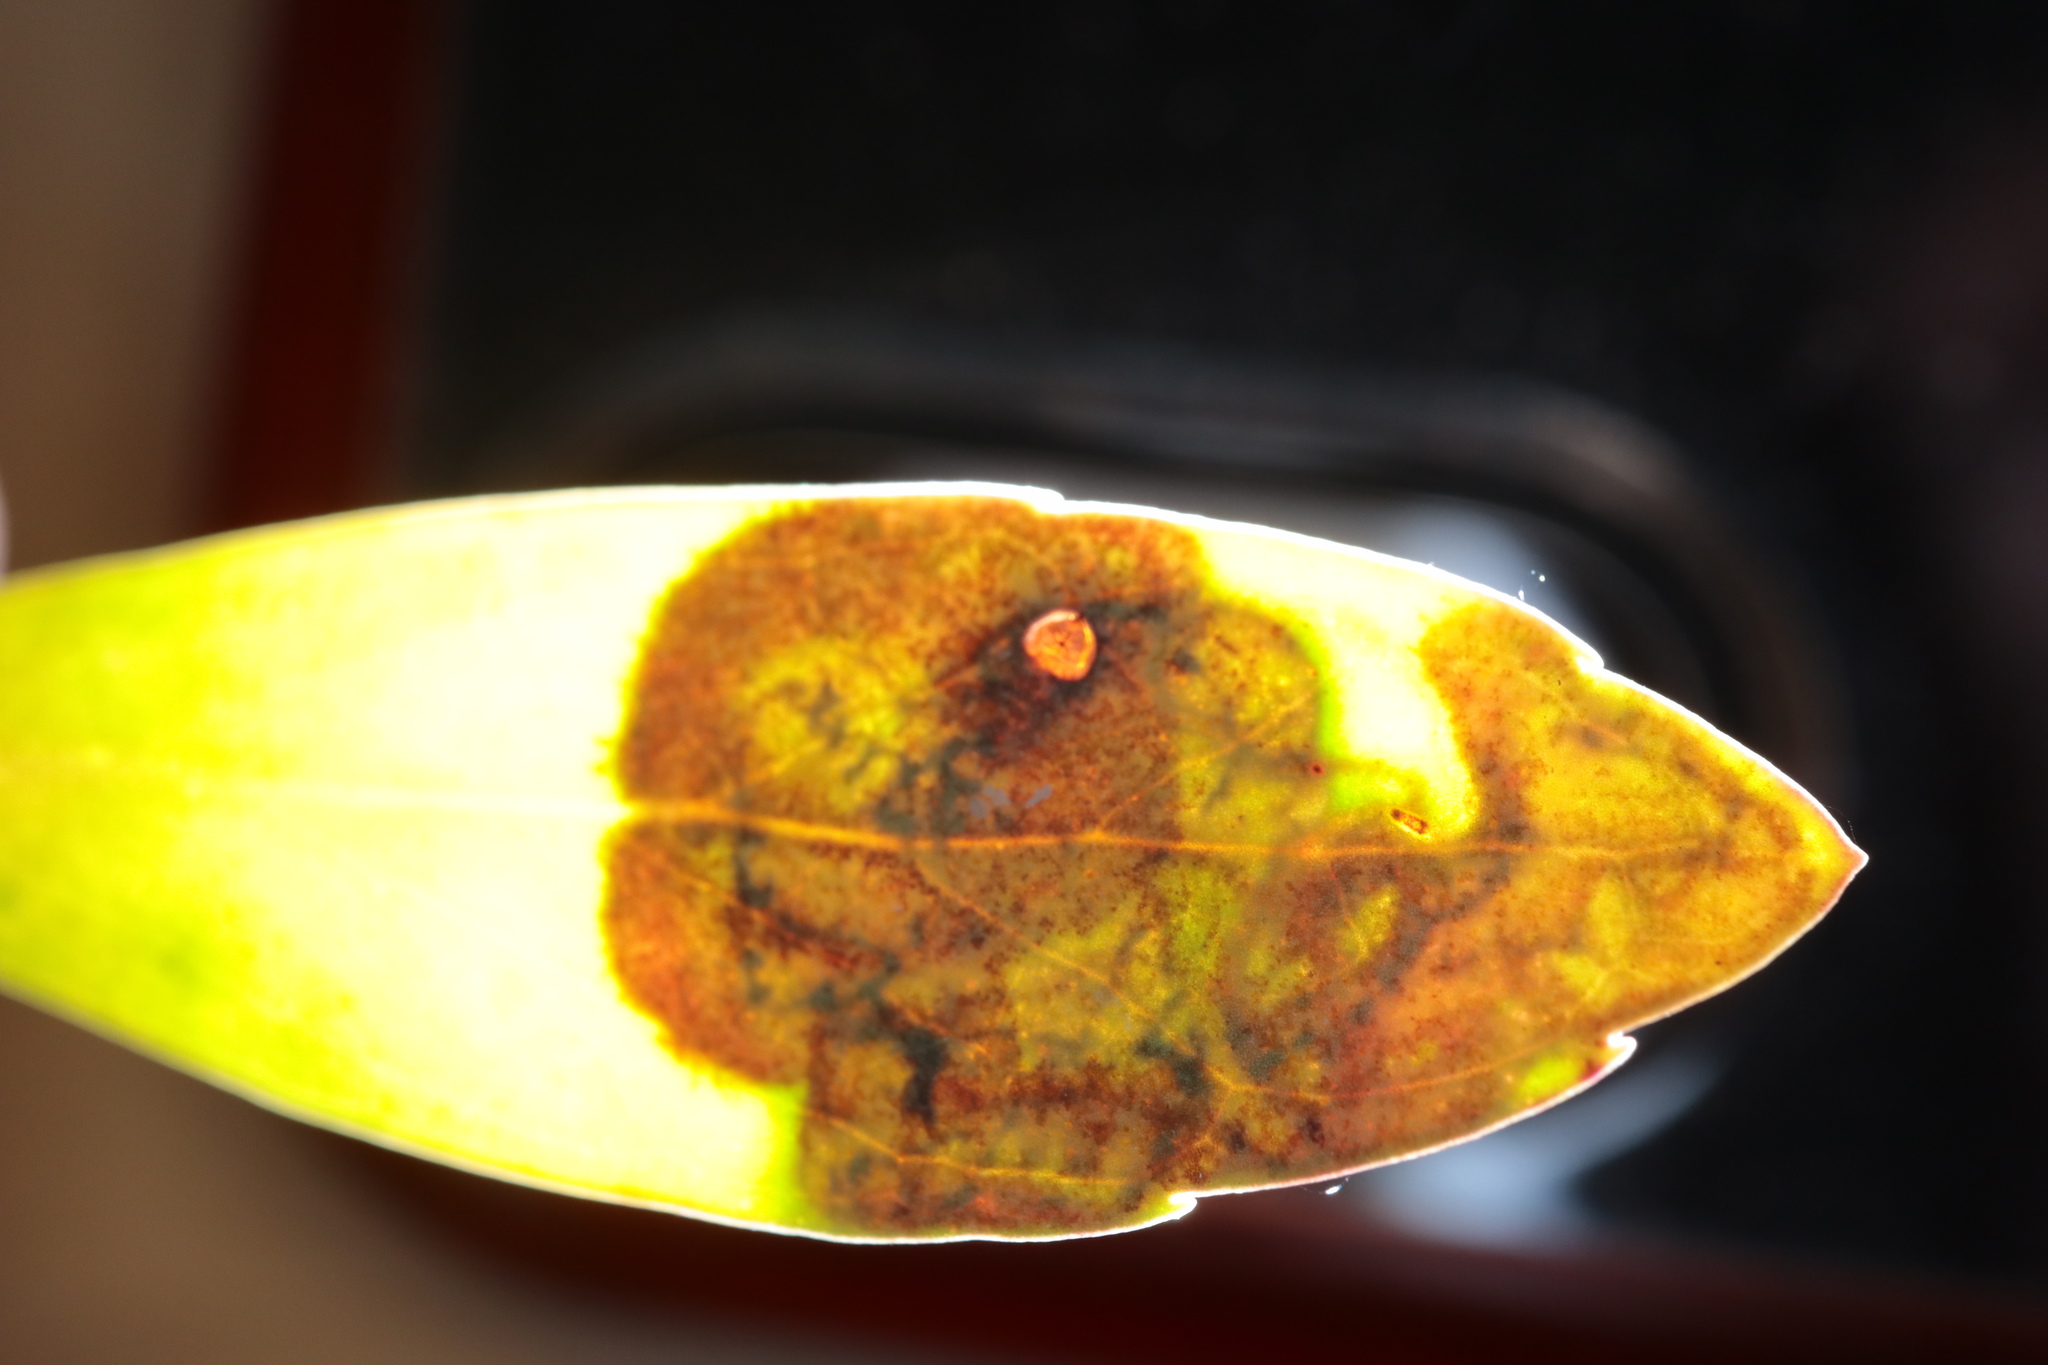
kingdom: Animalia
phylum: Arthropoda
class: Insecta
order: Diptera
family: Agromyzidae
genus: Phytomyza
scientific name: Phytomyza glabricola
